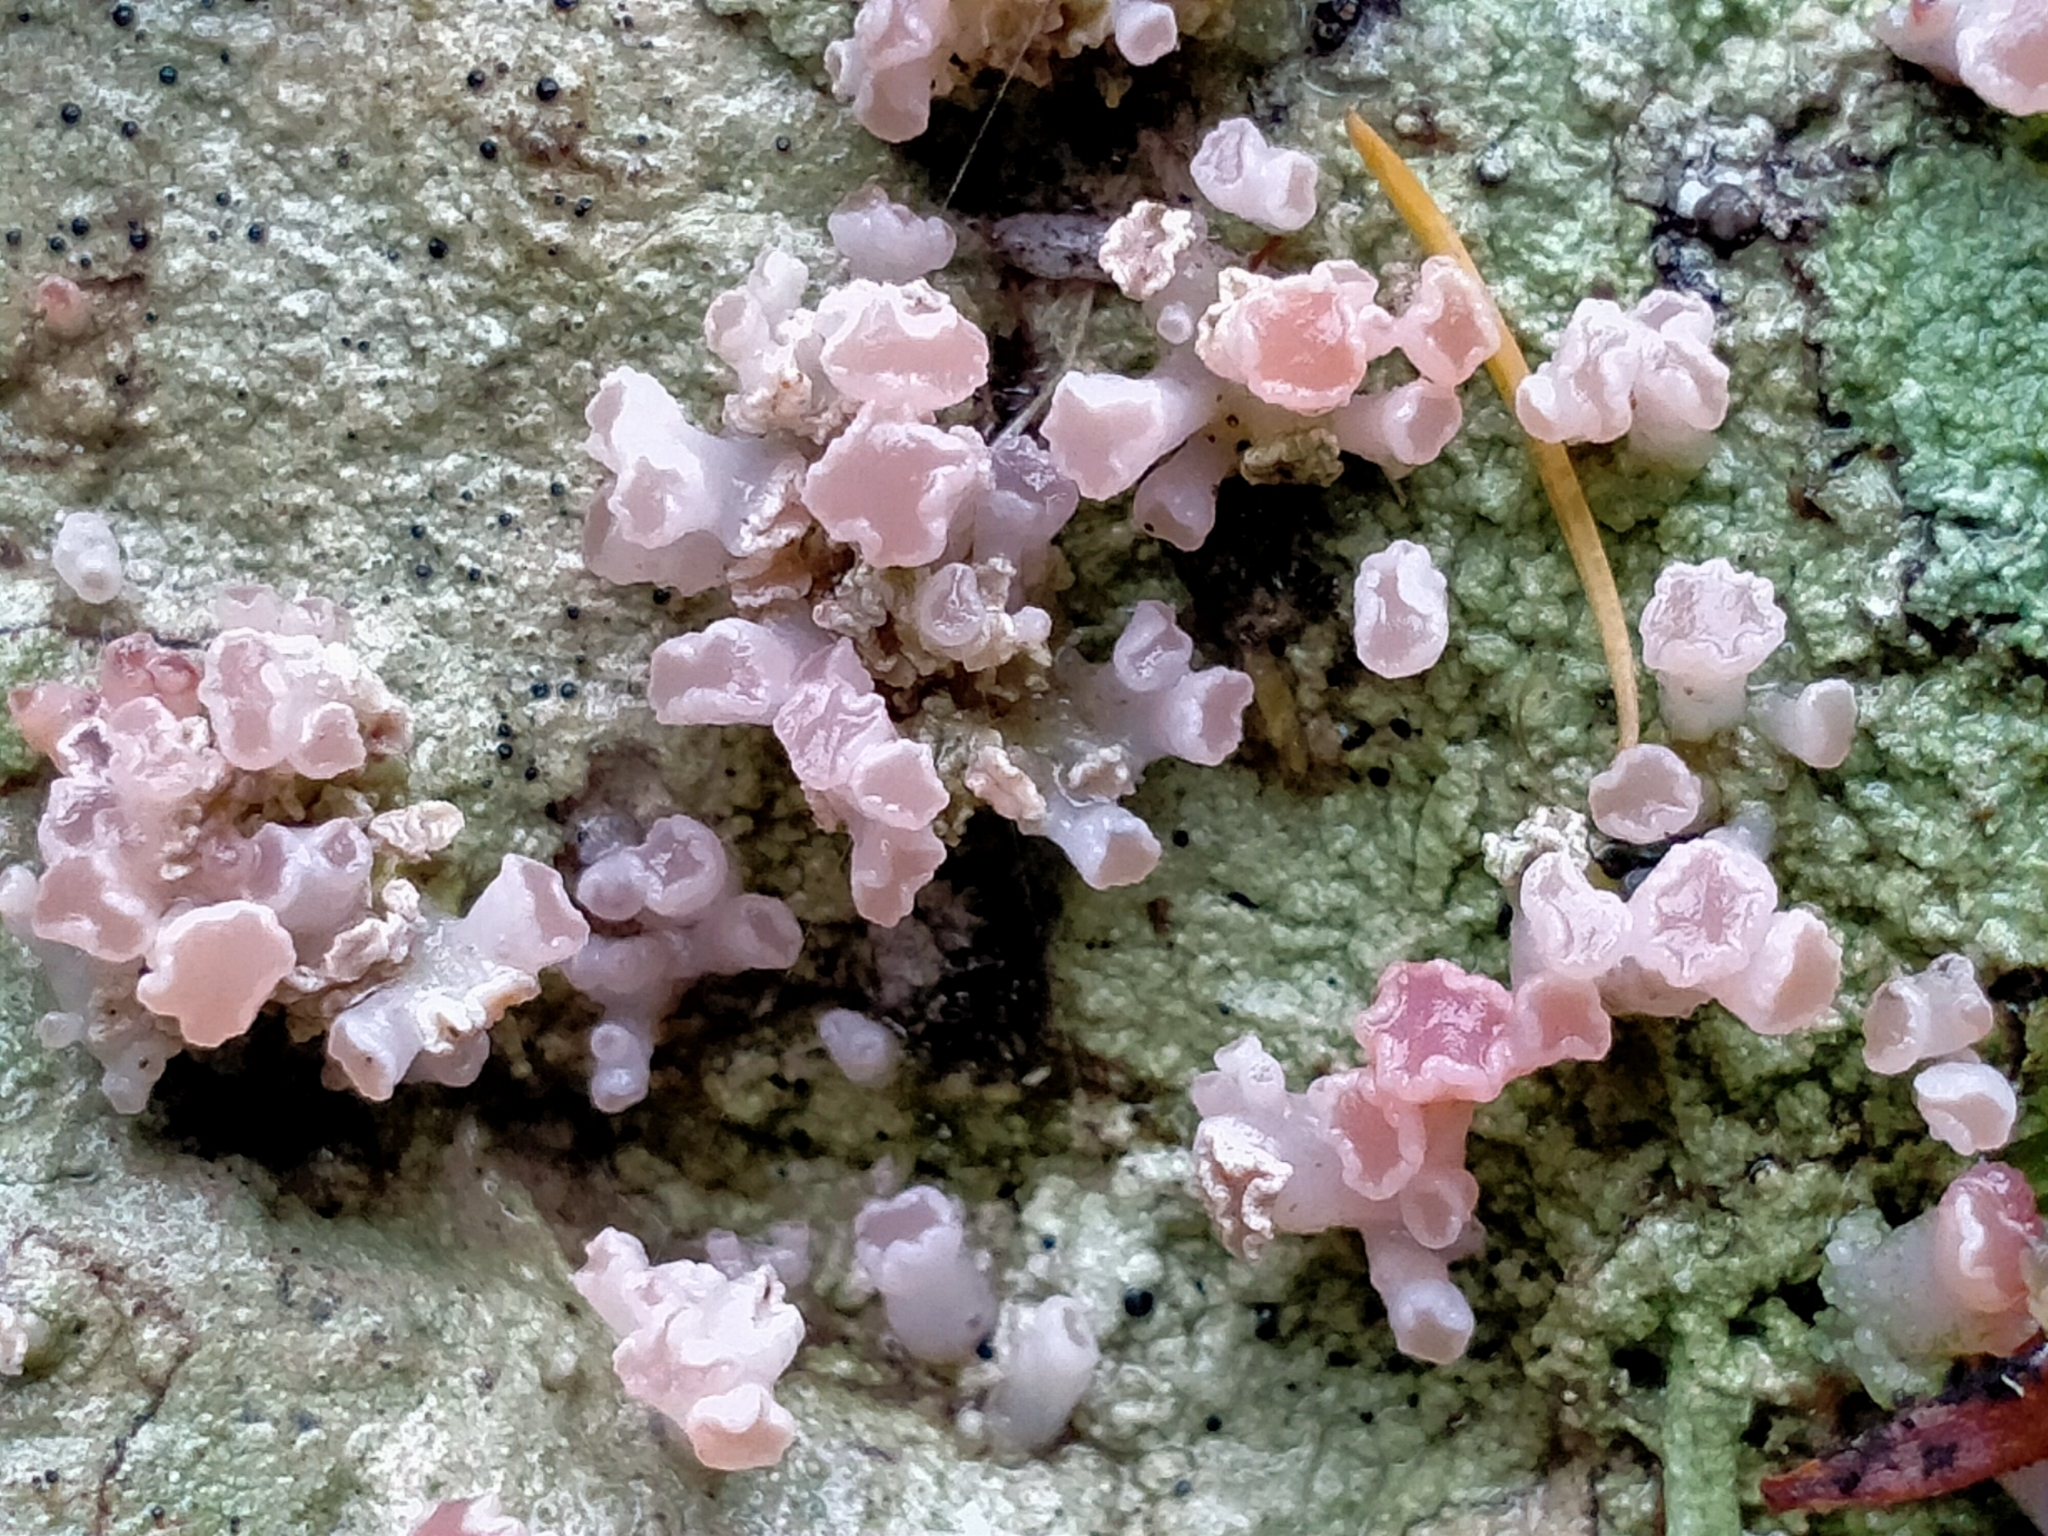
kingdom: Fungi
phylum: Ascomycota
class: Lecanoromycetes
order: Baeomycetales
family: Baeomycetaceae
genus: Baeomyces
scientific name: Baeomyces heteromorphus
